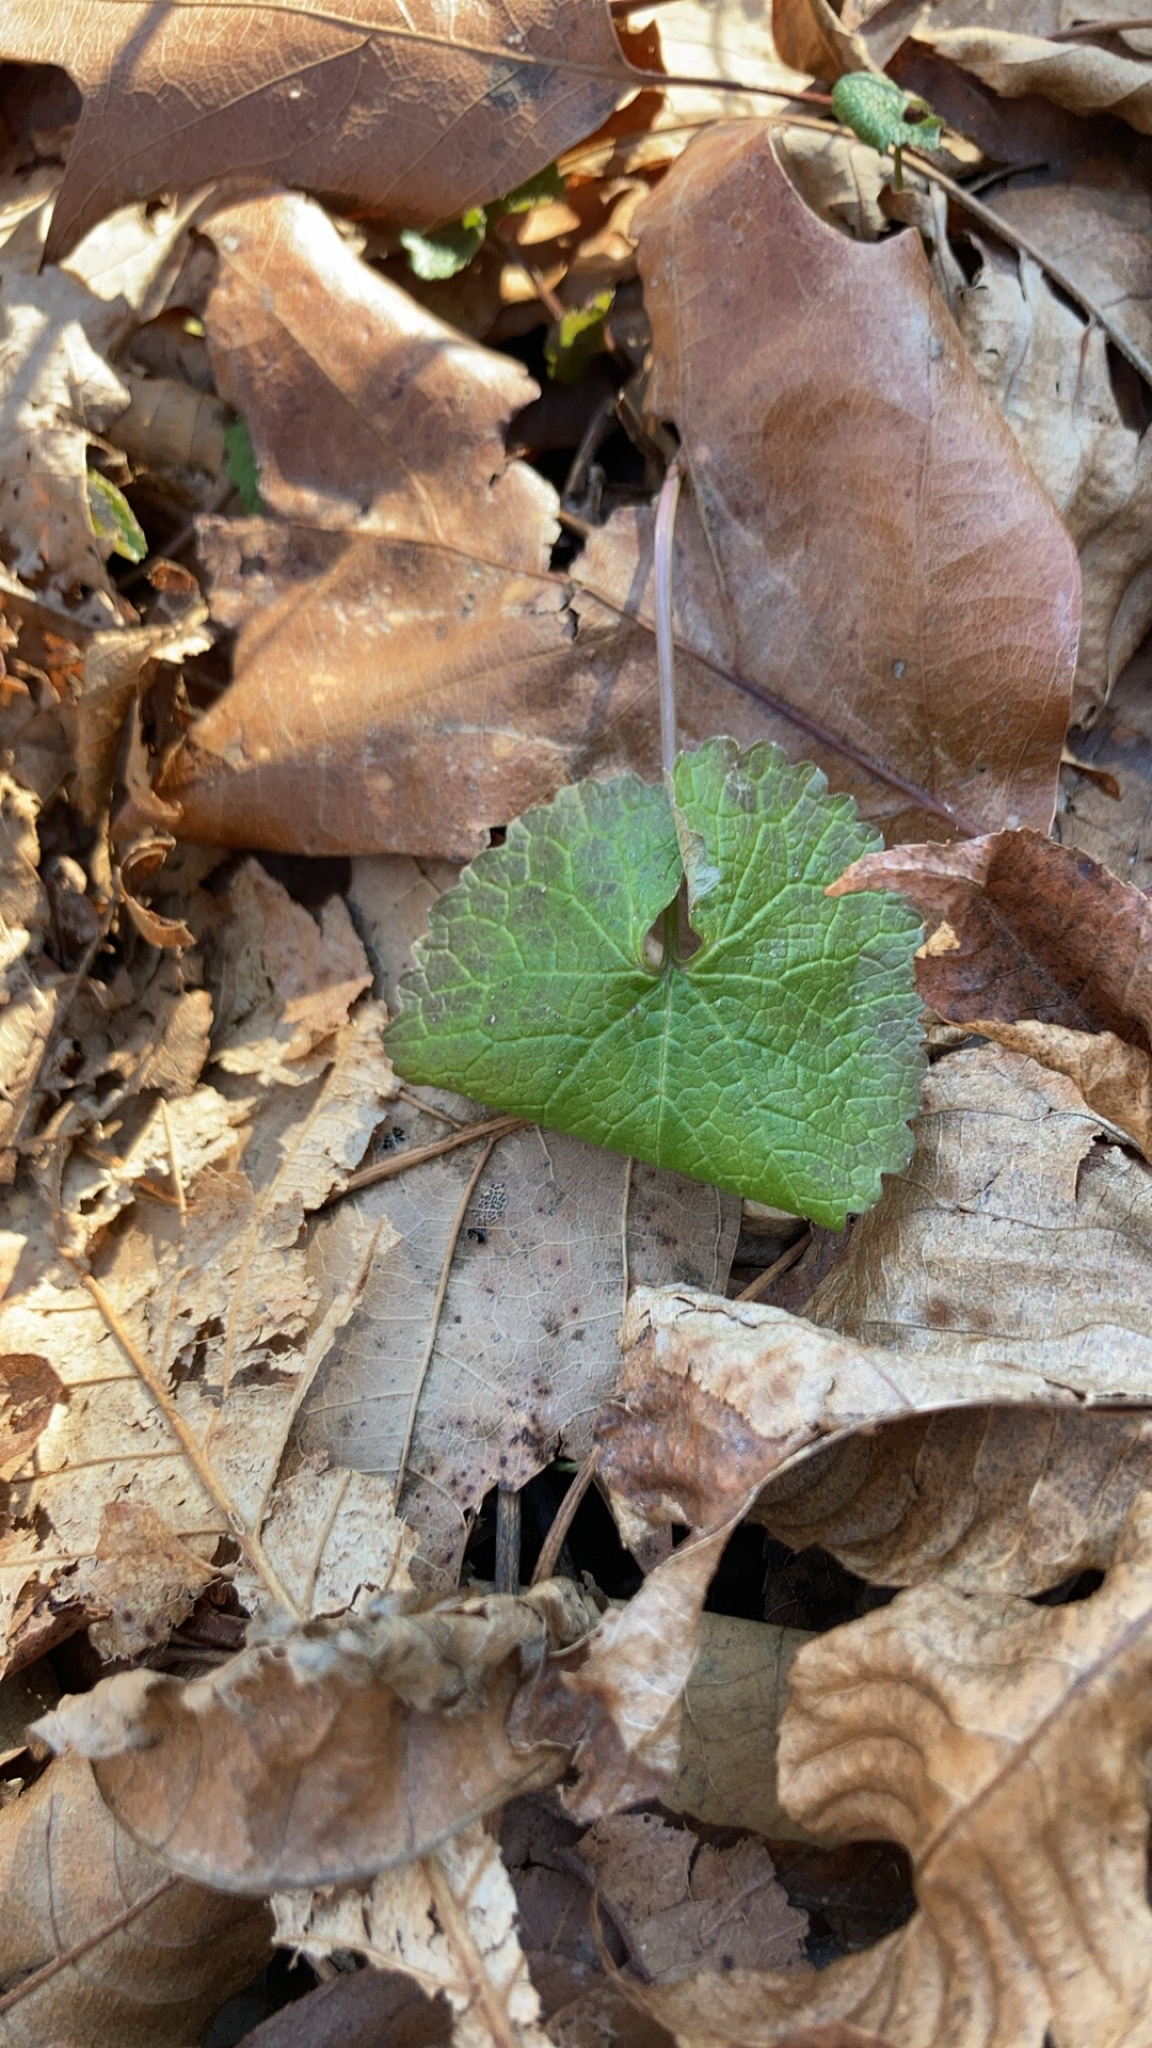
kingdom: Plantae
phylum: Tracheophyta
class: Magnoliopsida
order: Brassicales
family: Brassicaceae
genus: Alliaria
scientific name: Alliaria petiolata
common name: Garlic mustard
